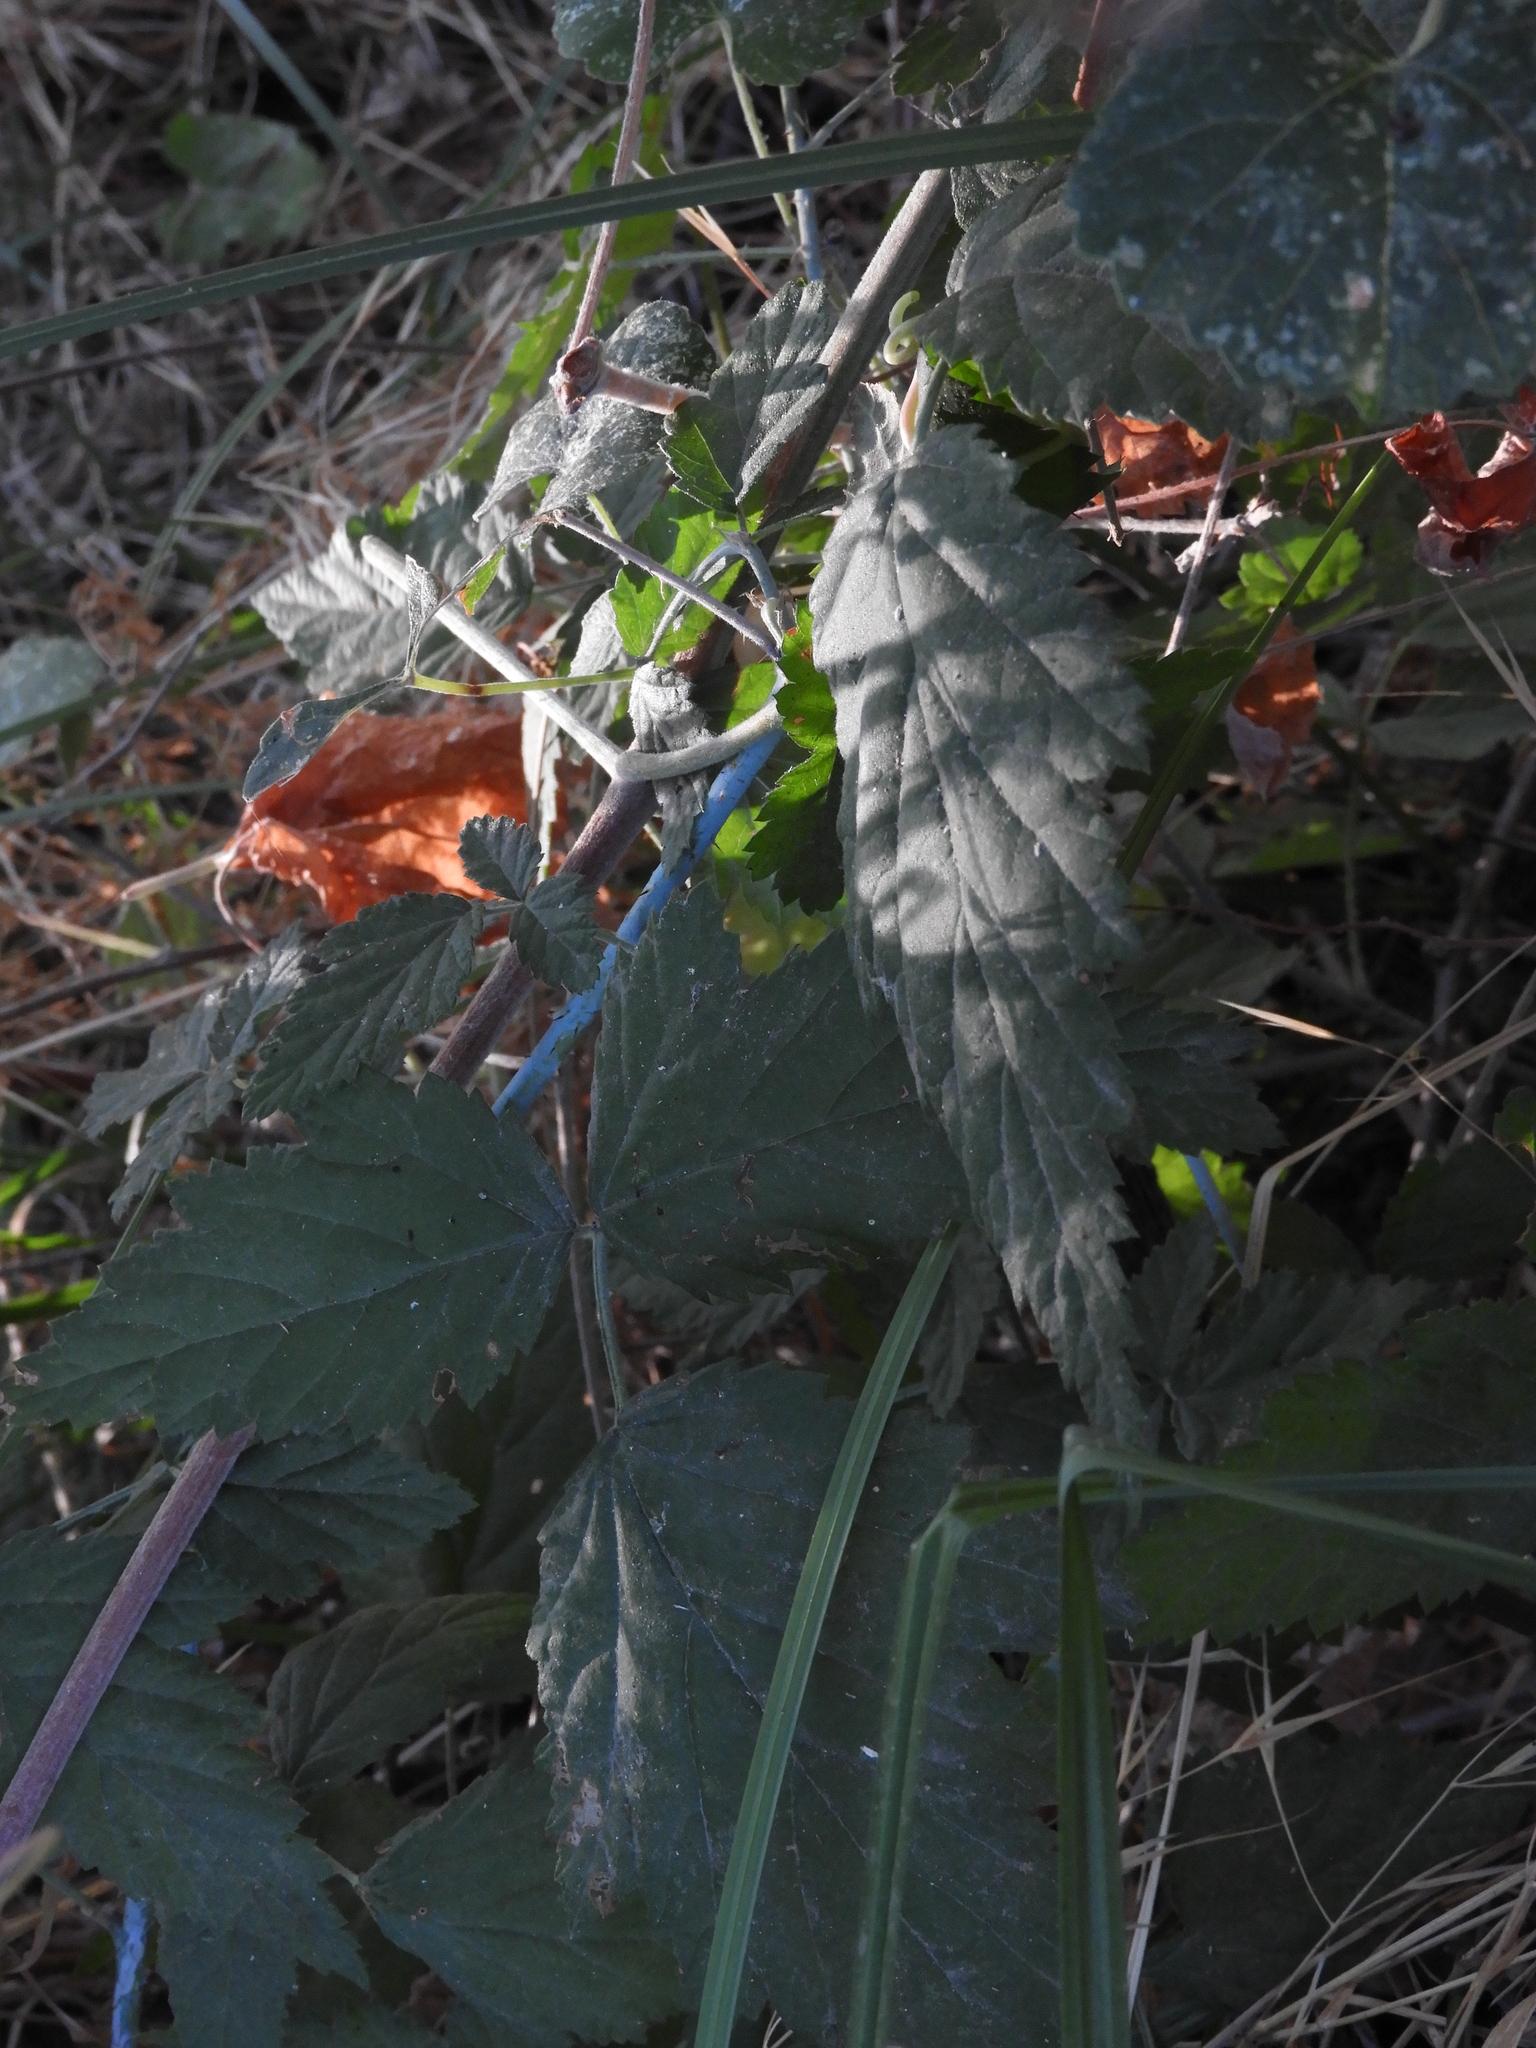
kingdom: Plantae
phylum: Tracheophyta
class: Magnoliopsida
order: Rosales
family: Rosaceae
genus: Rubus
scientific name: Rubus ursinus
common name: Pacific blackberry
